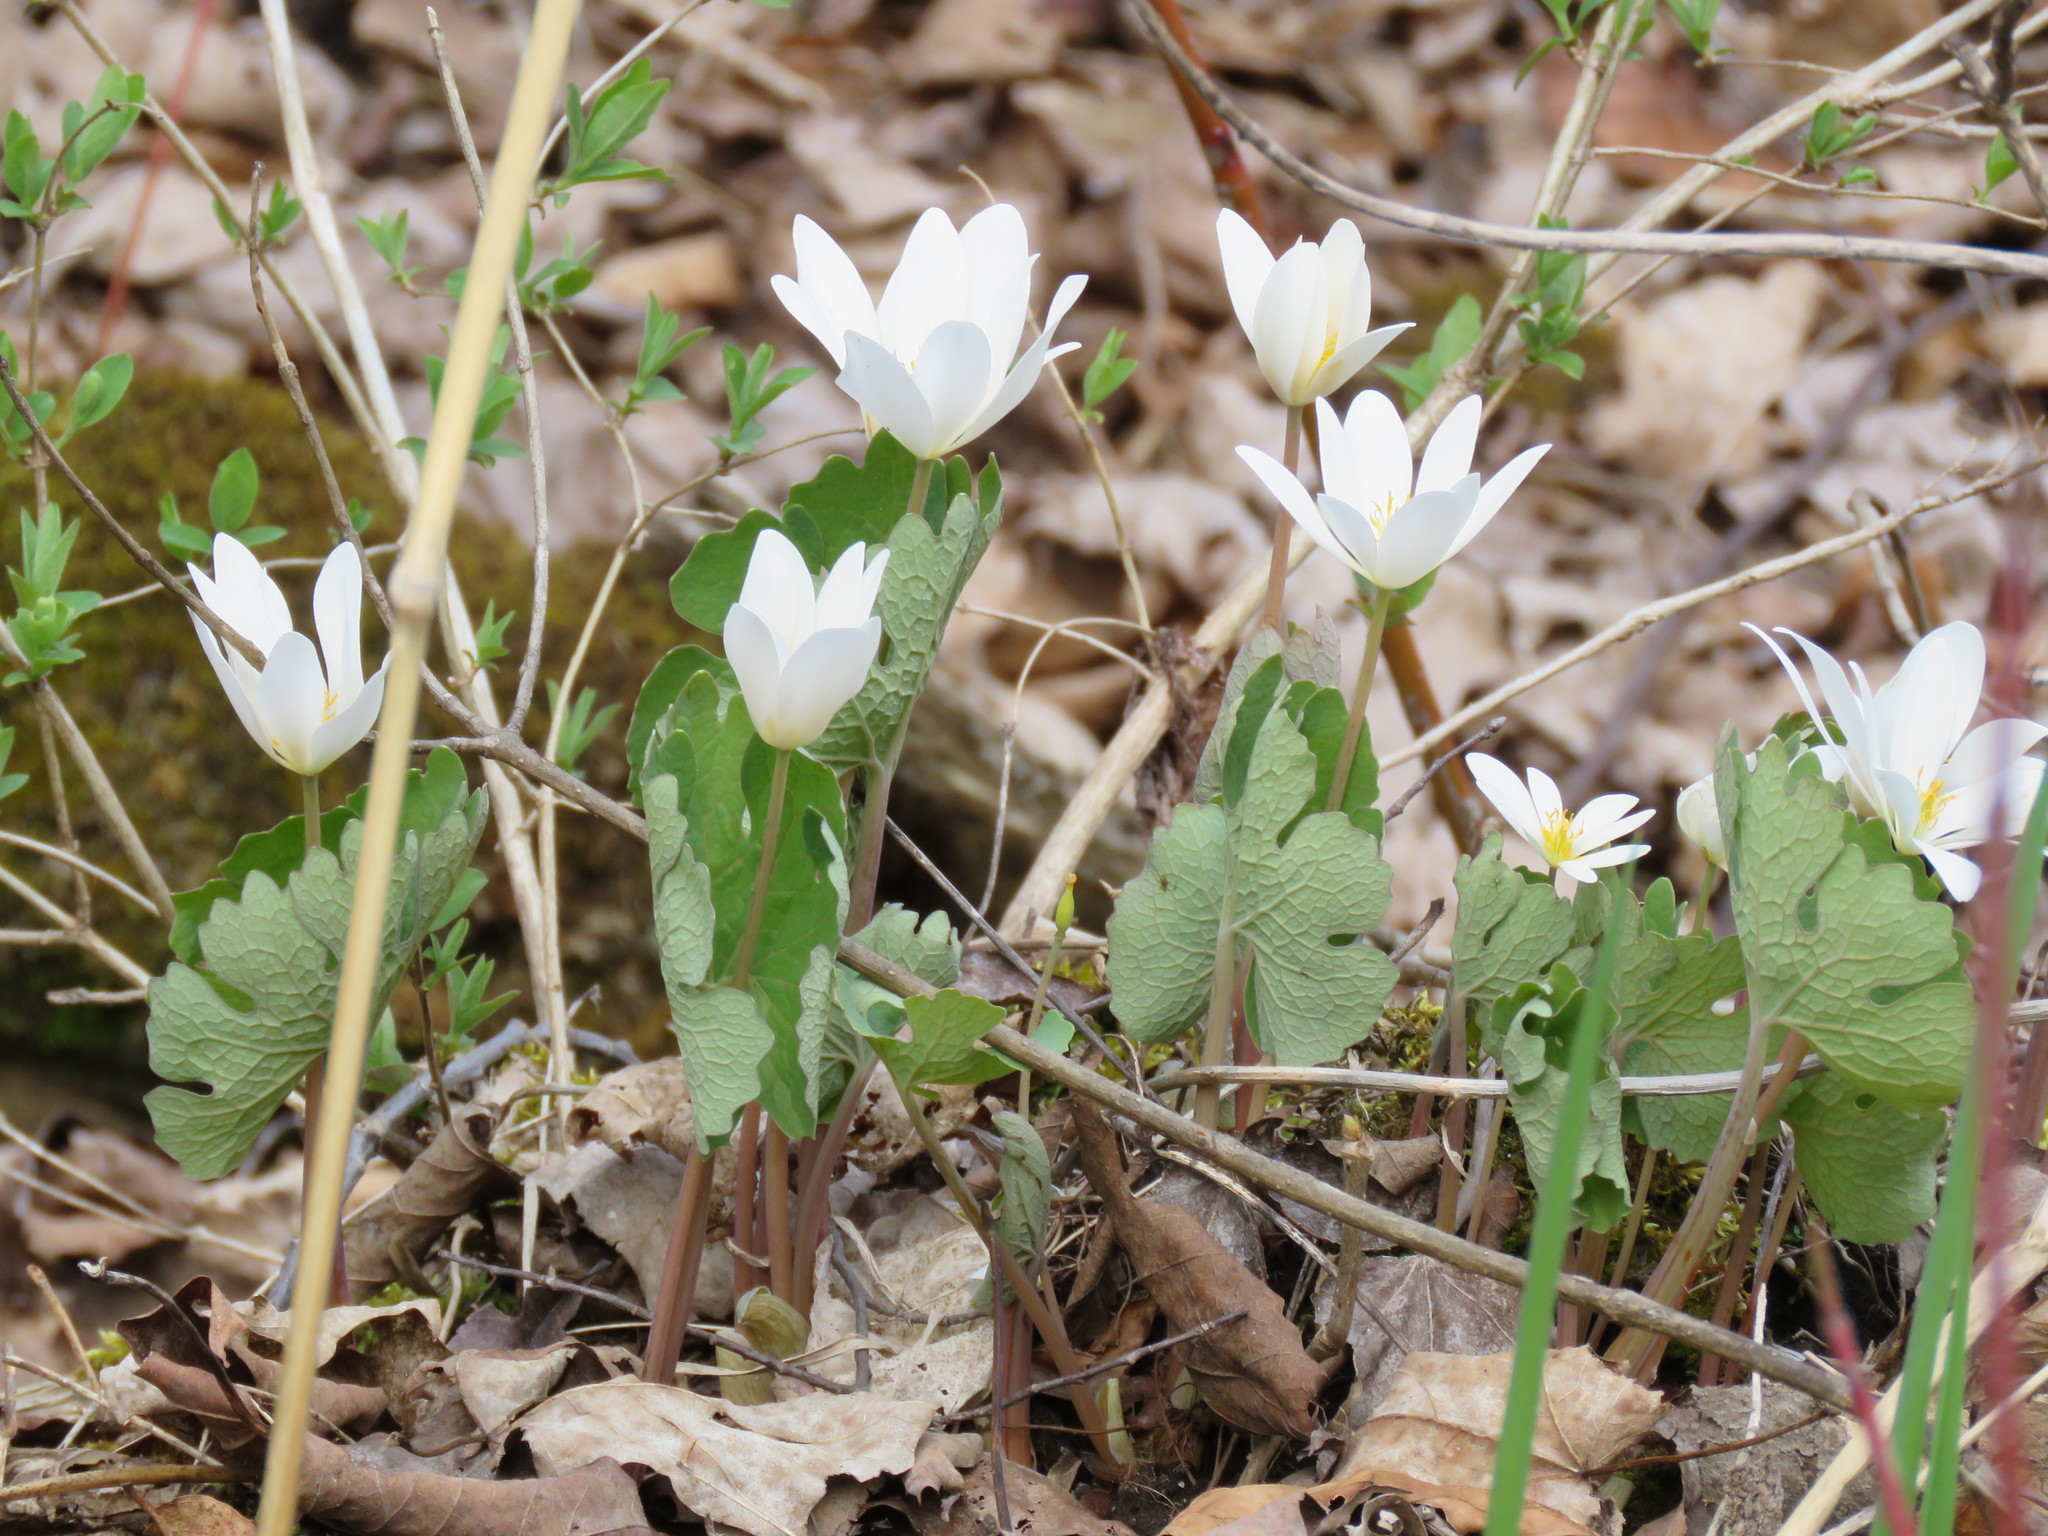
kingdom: Plantae
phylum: Tracheophyta
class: Magnoliopsida
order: Ranunculales
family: Papaveraceae
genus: Sanguinaria
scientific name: Sanguinaria canadensis
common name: Bloodroot
